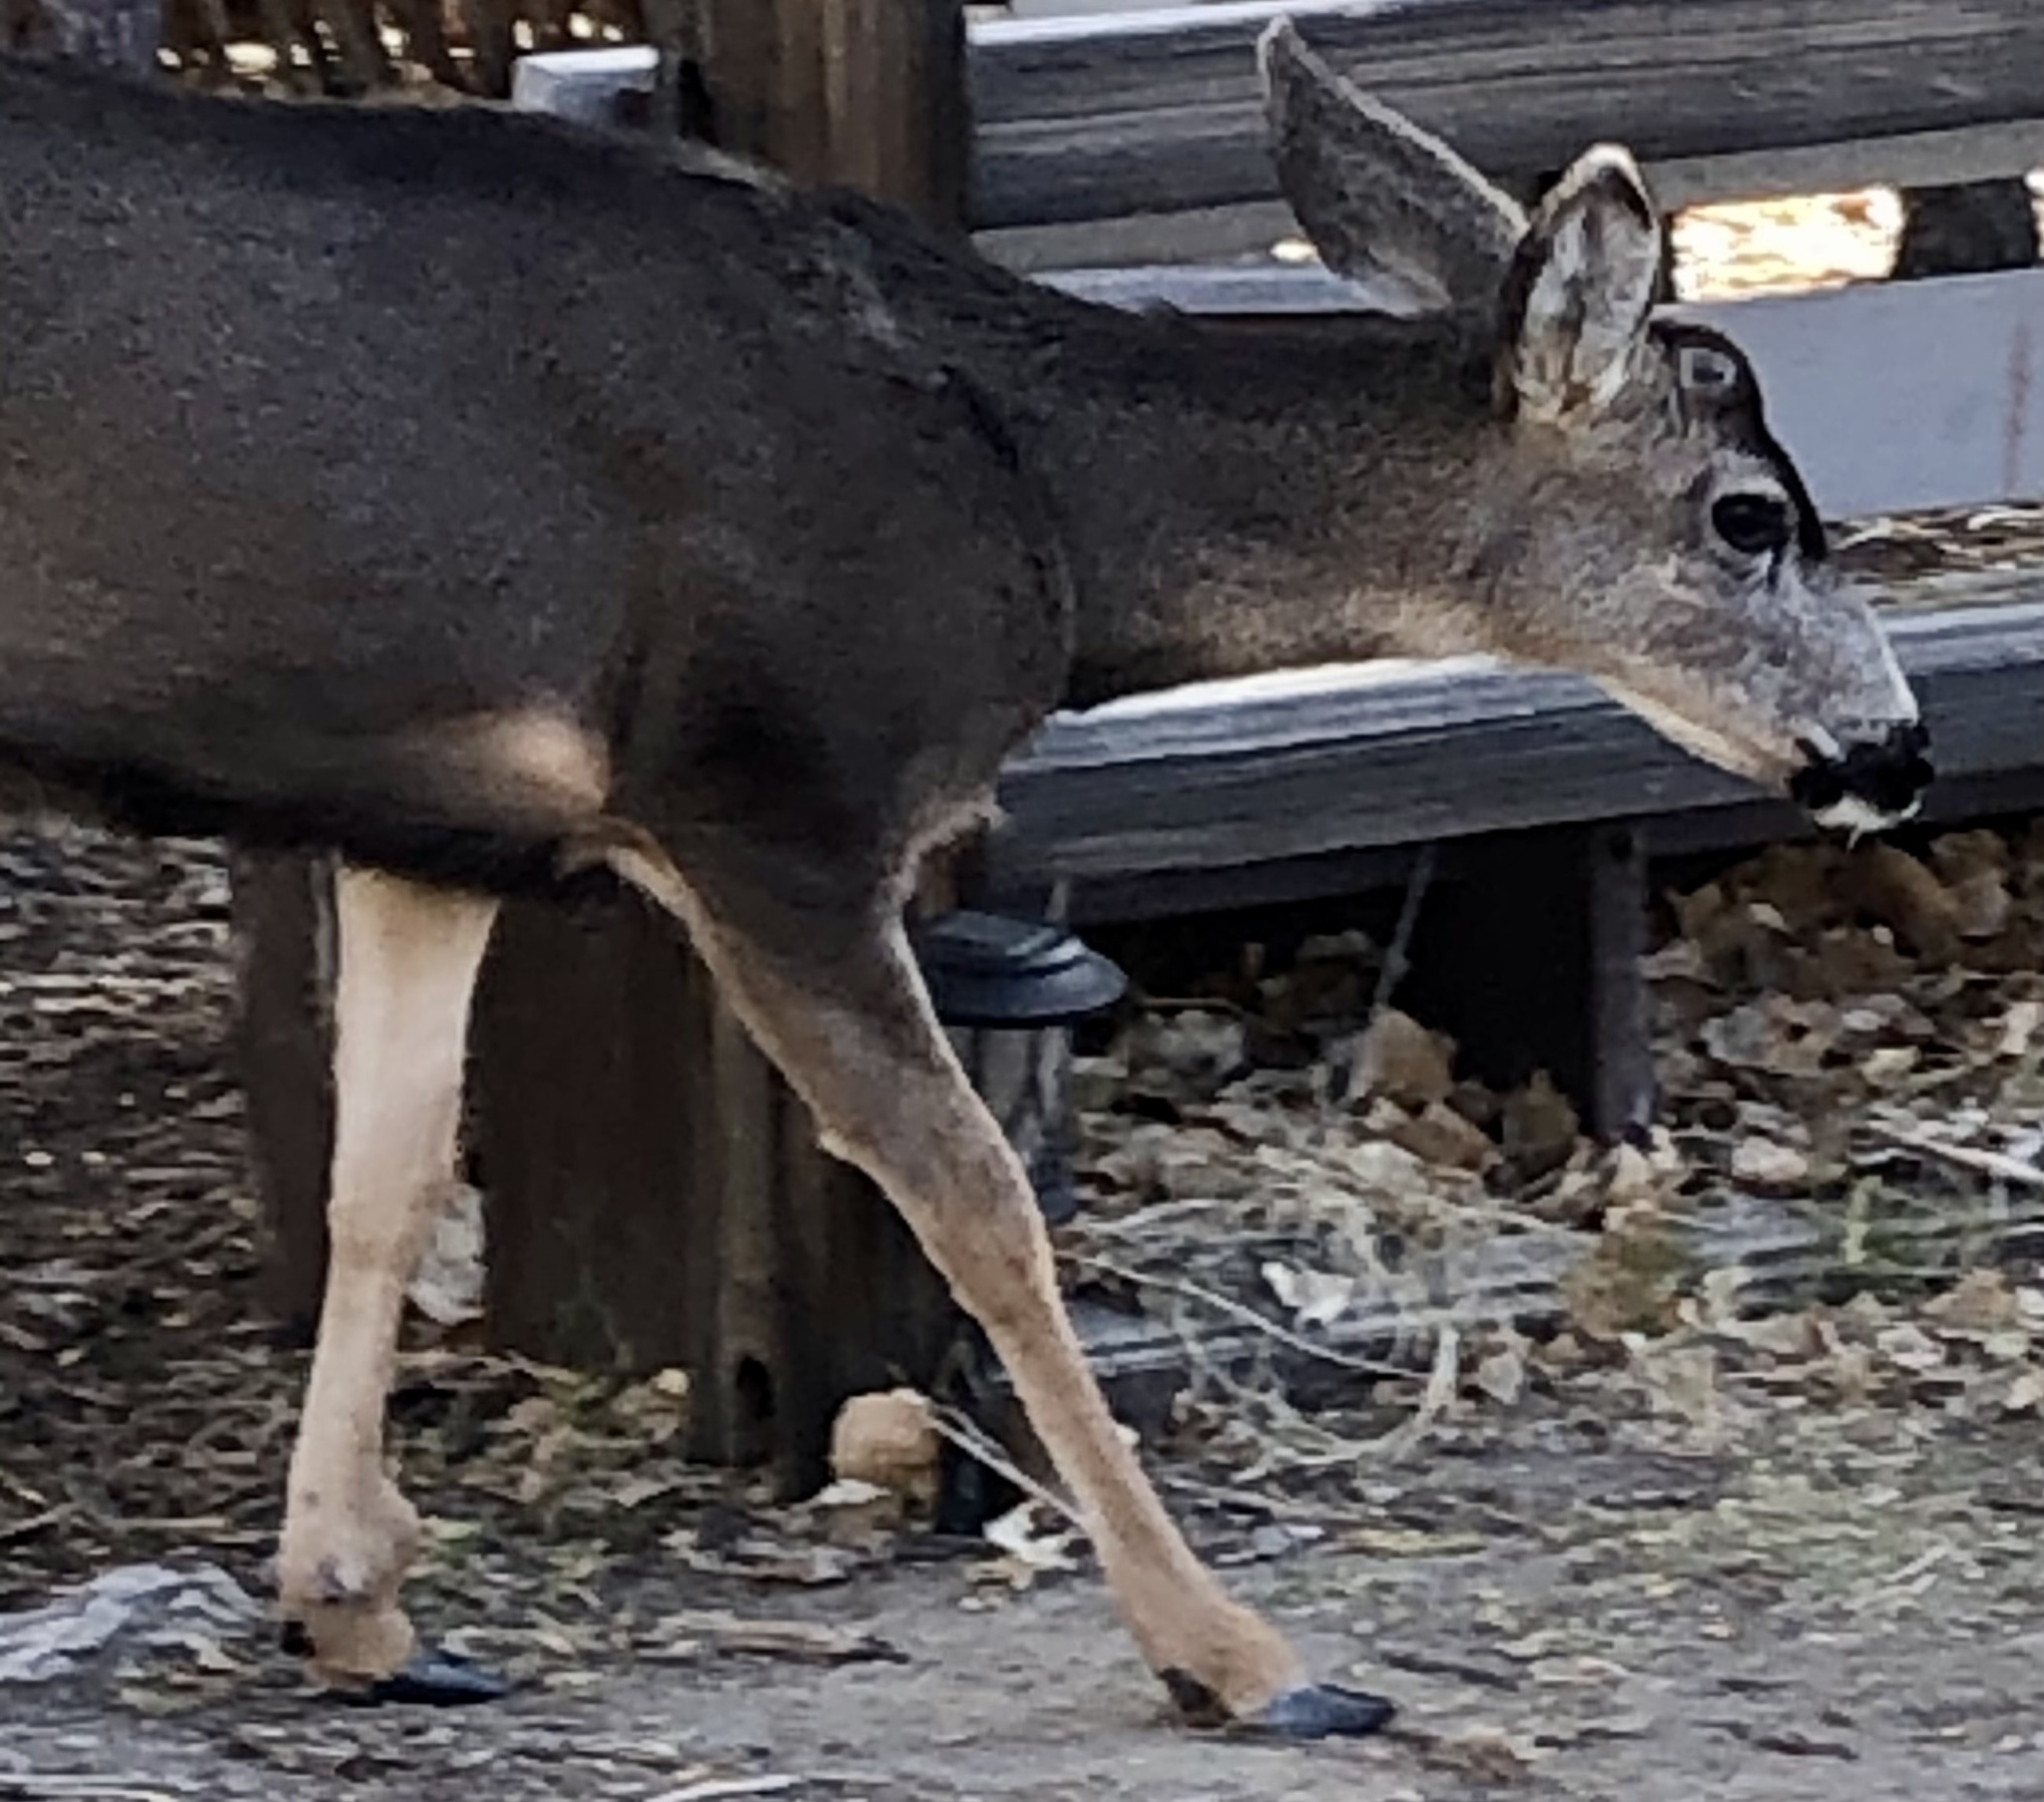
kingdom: Animalia
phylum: Chordata
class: Mammalia
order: Artiodactyla
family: Cervidae
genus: Odocoileus
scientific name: Odocoileus hemionus
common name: Mule deer
